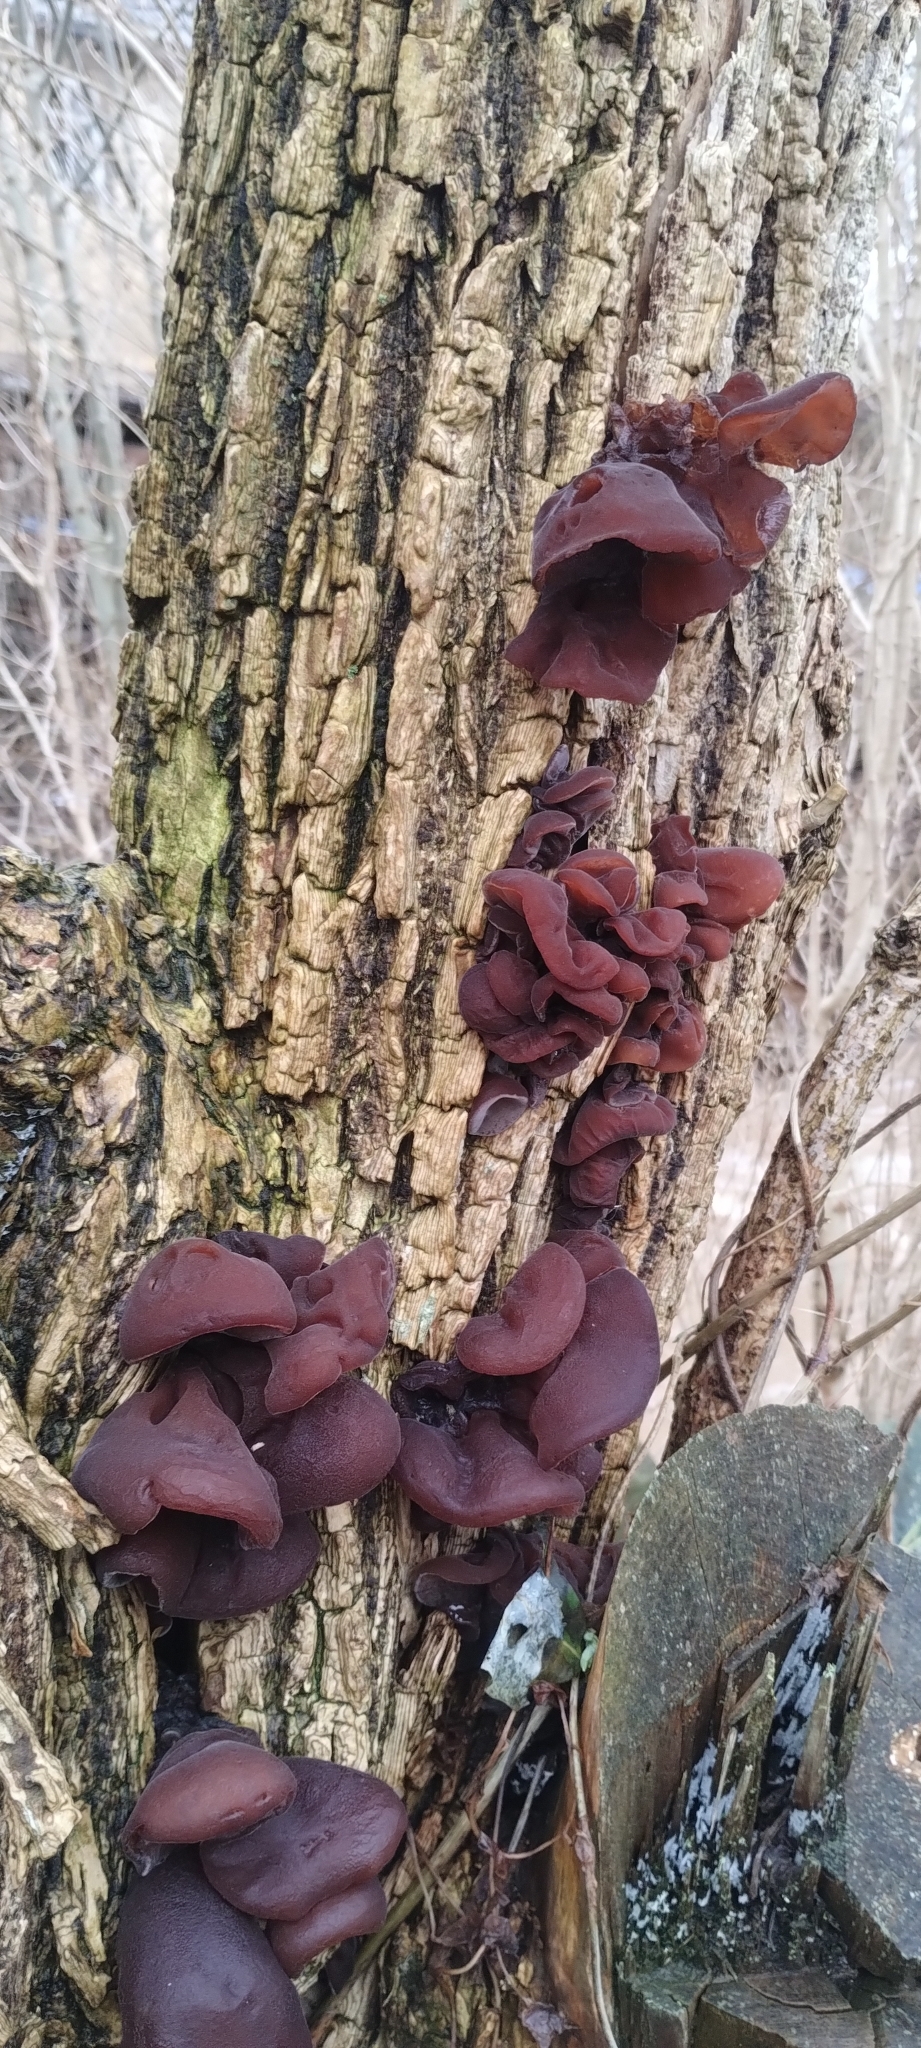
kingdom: Fungi
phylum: Basidiomycota
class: Agaricomycetes
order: Auriculariales
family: Auriculariaceae
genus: Auricularia
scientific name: Auricularia auricula-judae
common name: Jelly ear
